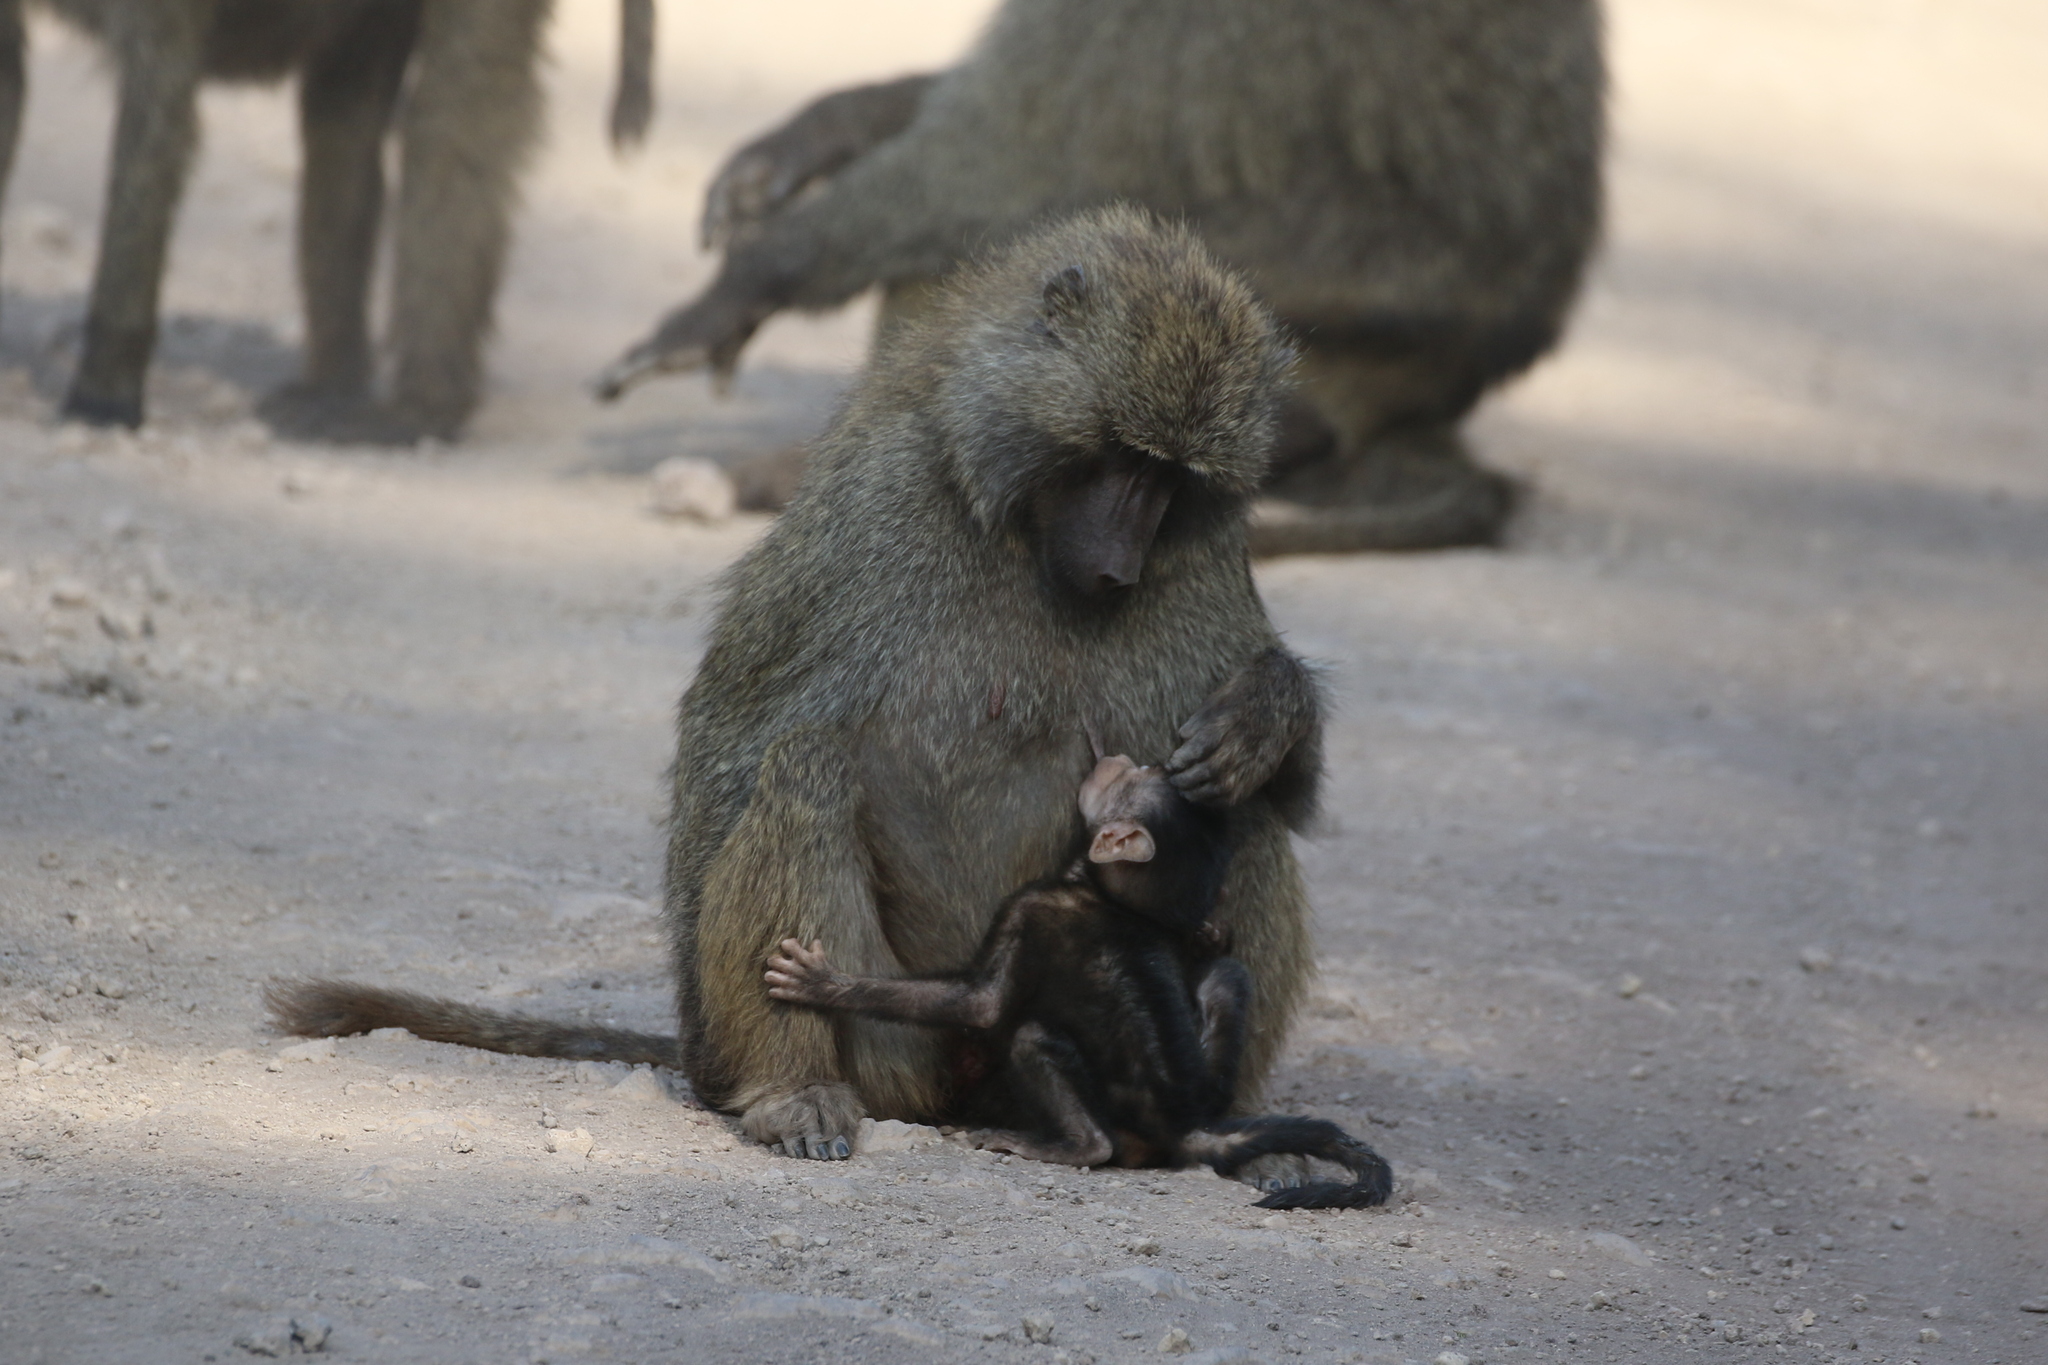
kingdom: Animalia
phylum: Chordata
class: Mammalia
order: Primates
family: Cercopithecidae
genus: Papio
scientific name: Papio anubis
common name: Olive baboon
